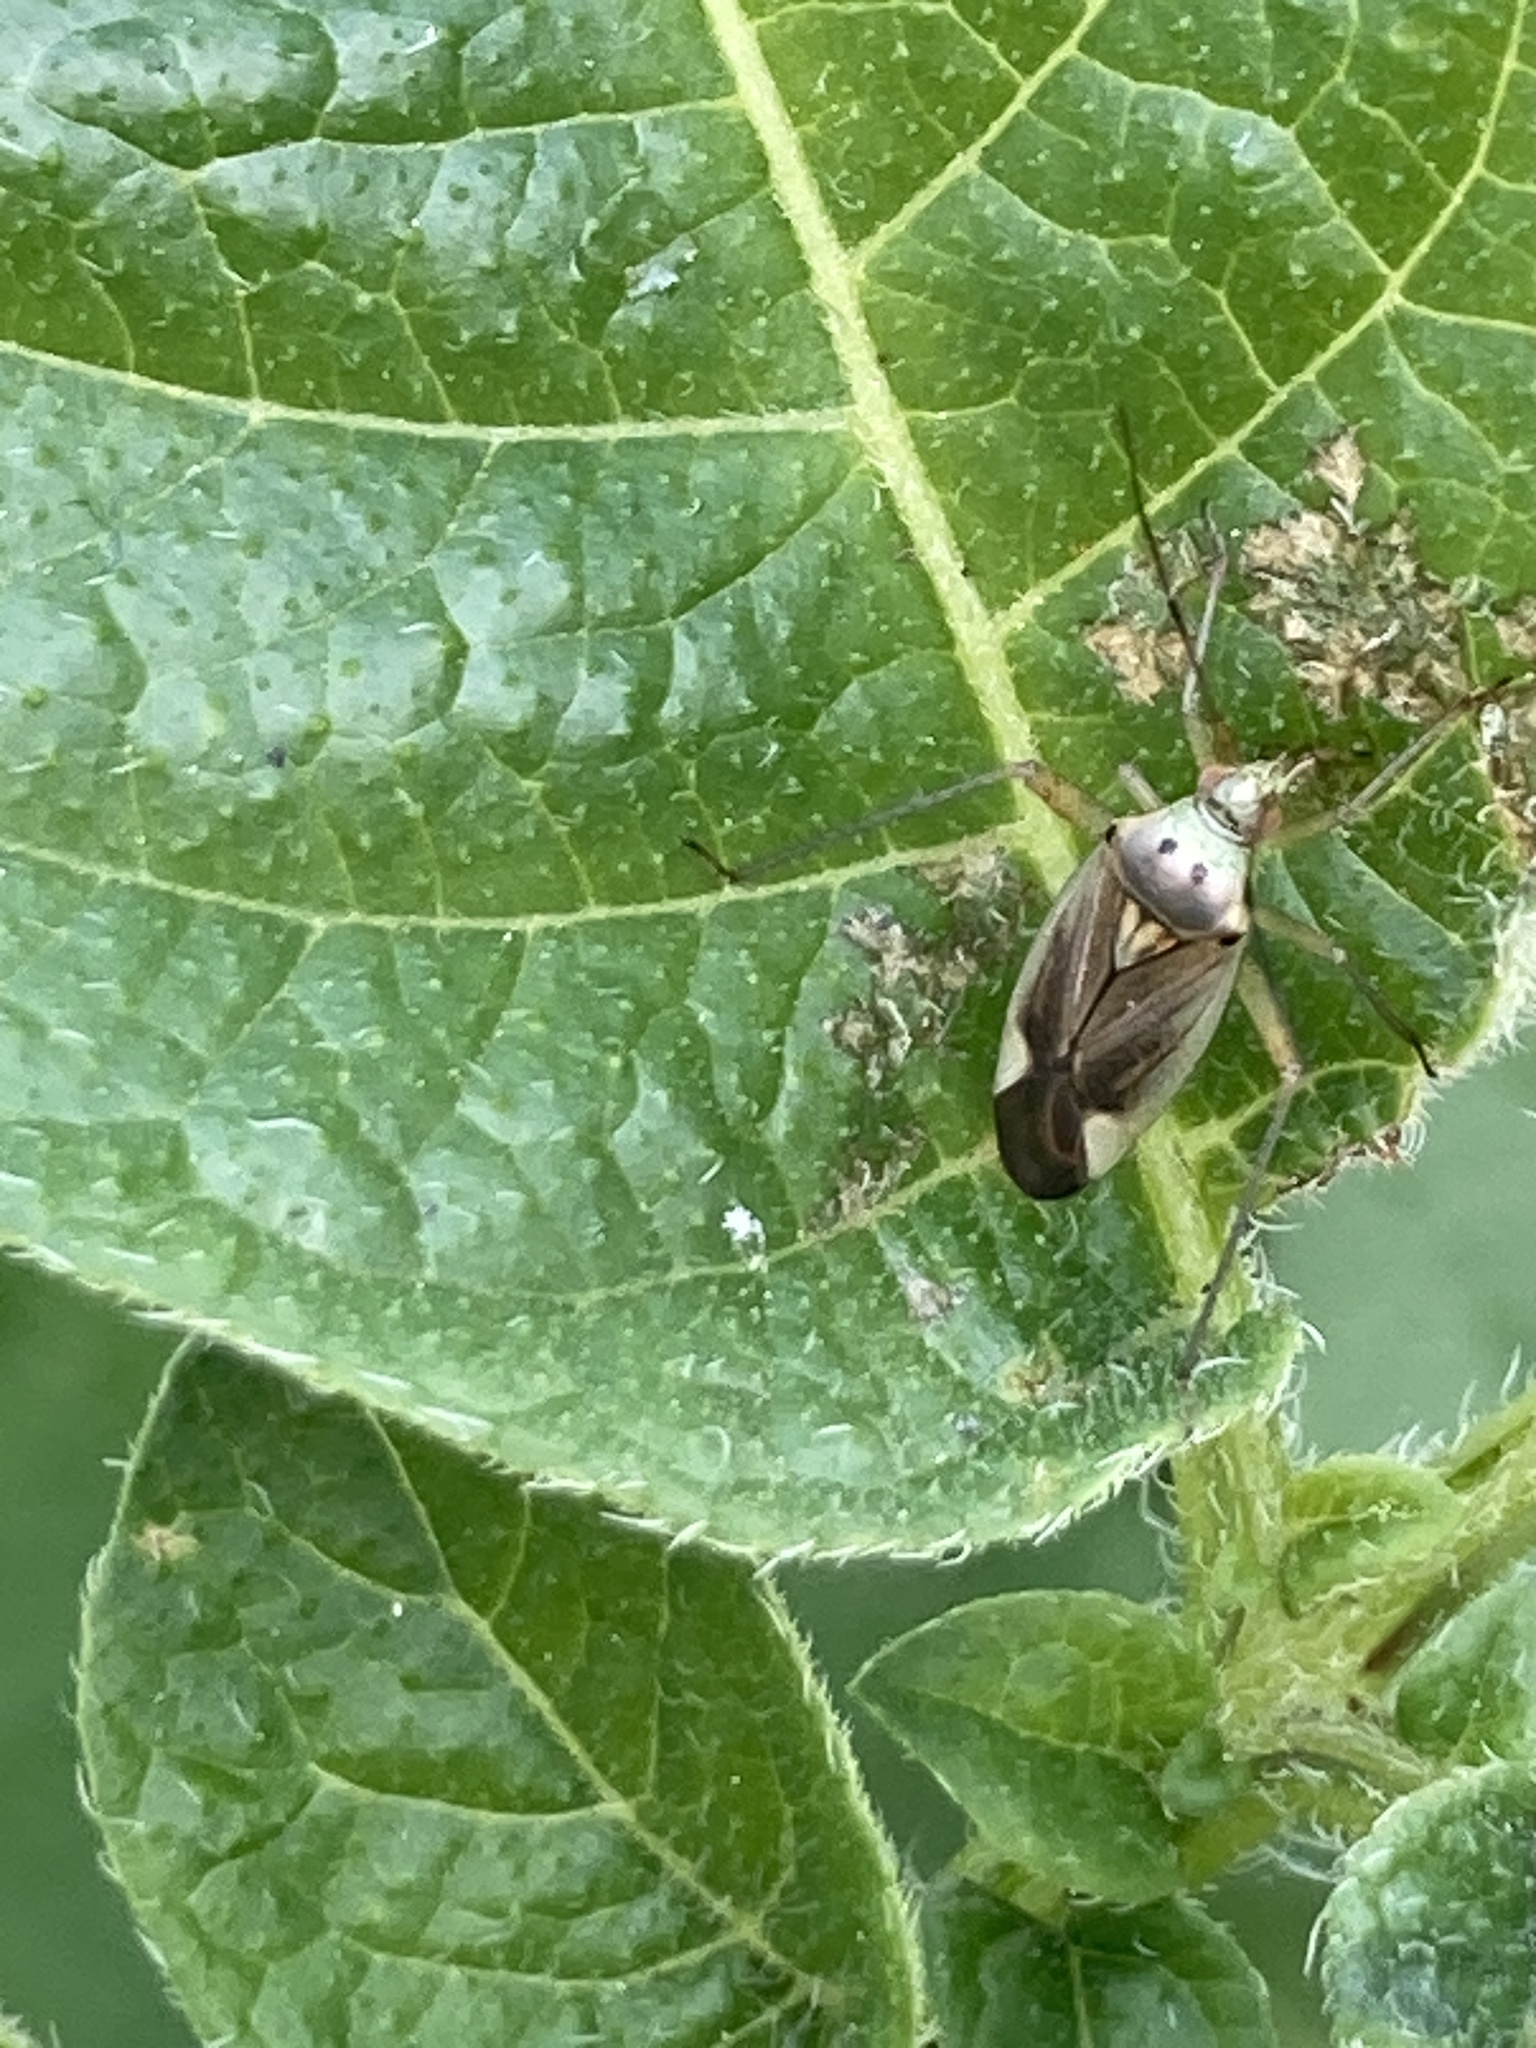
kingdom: Animalia
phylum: Arthropoda
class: Insecta
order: Hemiptera
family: Miridae
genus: Closterotomus
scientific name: Closterotomus trivialis
